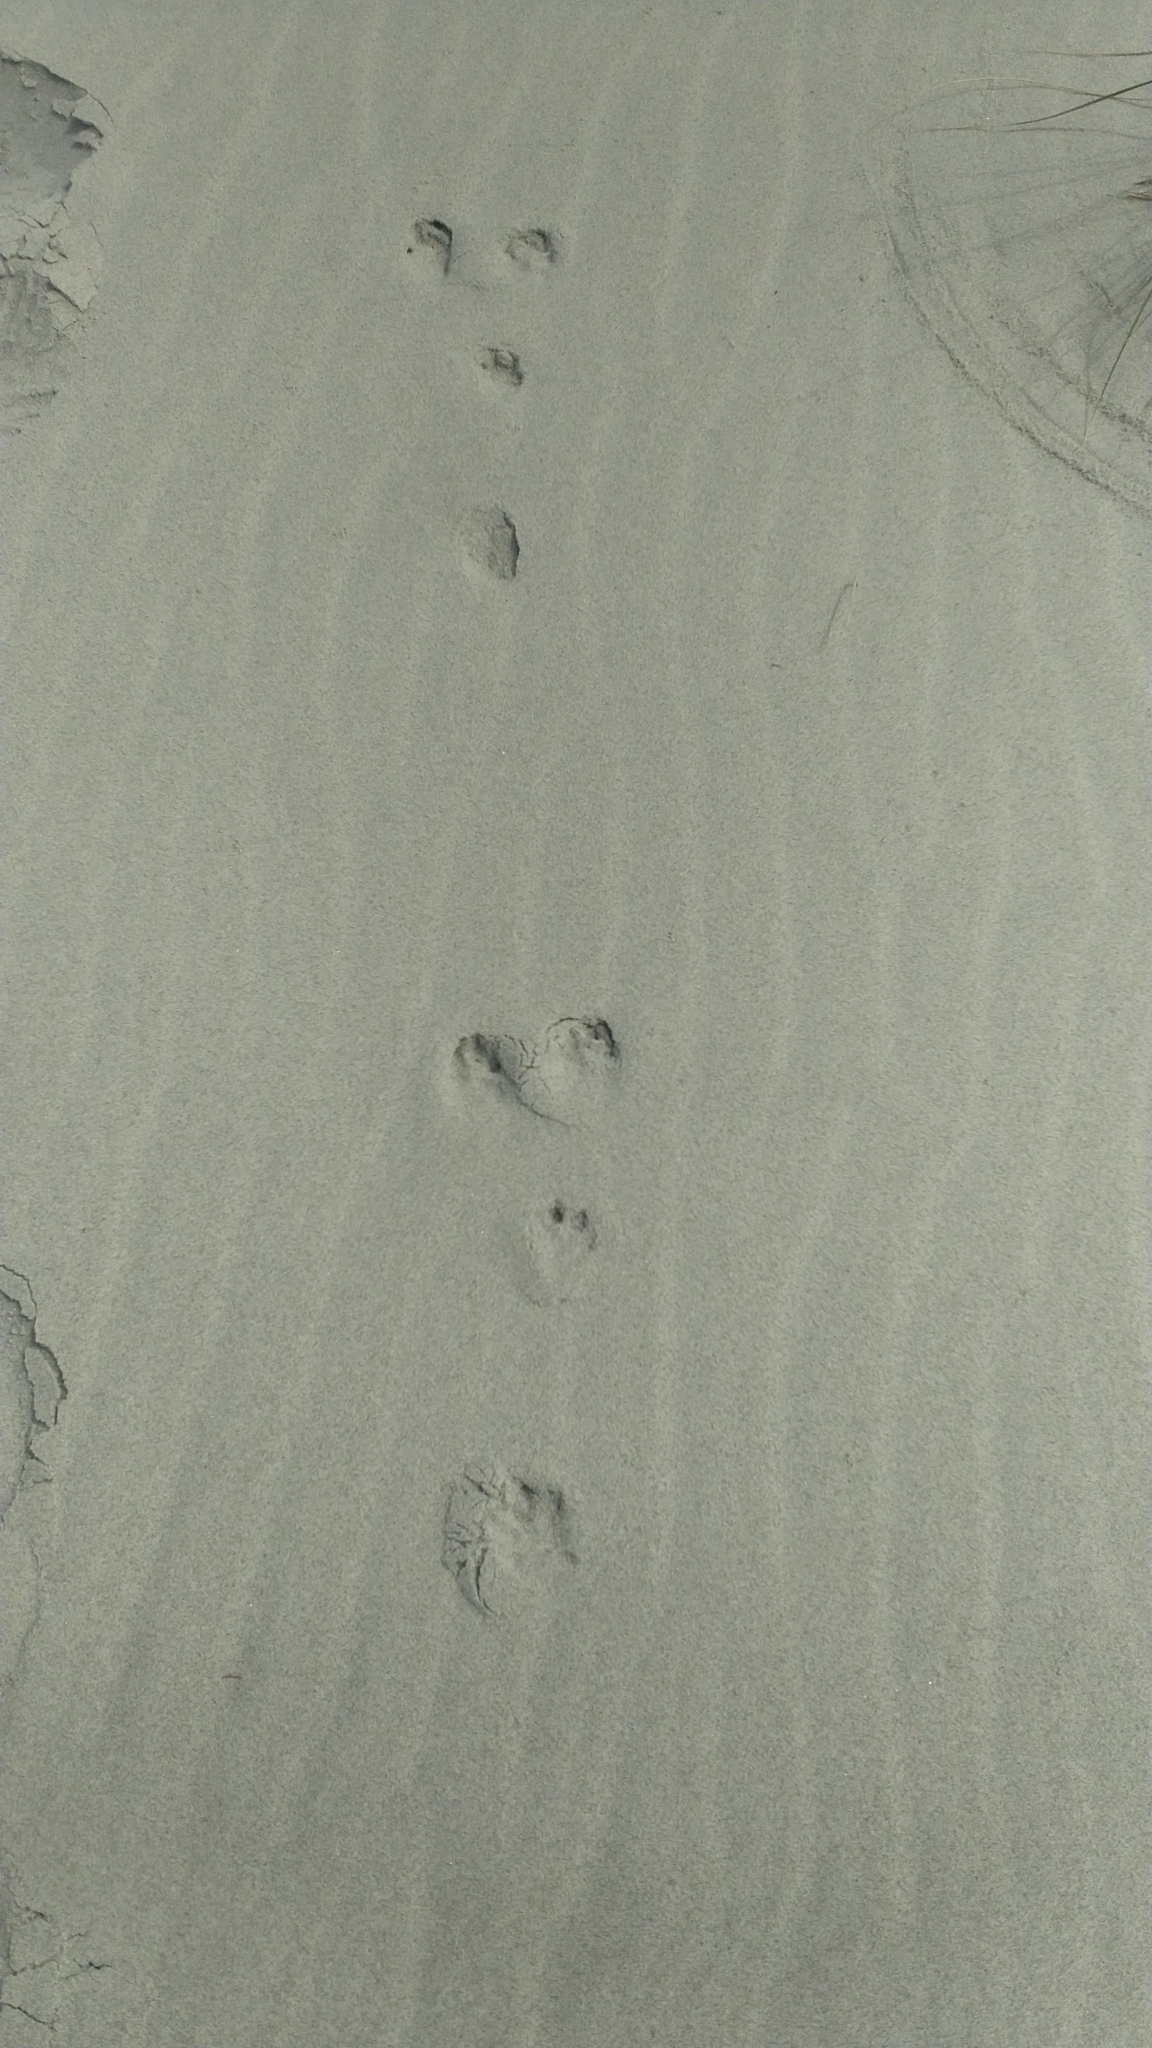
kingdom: Animalia
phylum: Chordata
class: Mammalia
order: Lagomorpha
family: Leporidae
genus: Oryctolagus
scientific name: Oryctolagus cuniculus
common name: European rabbit
